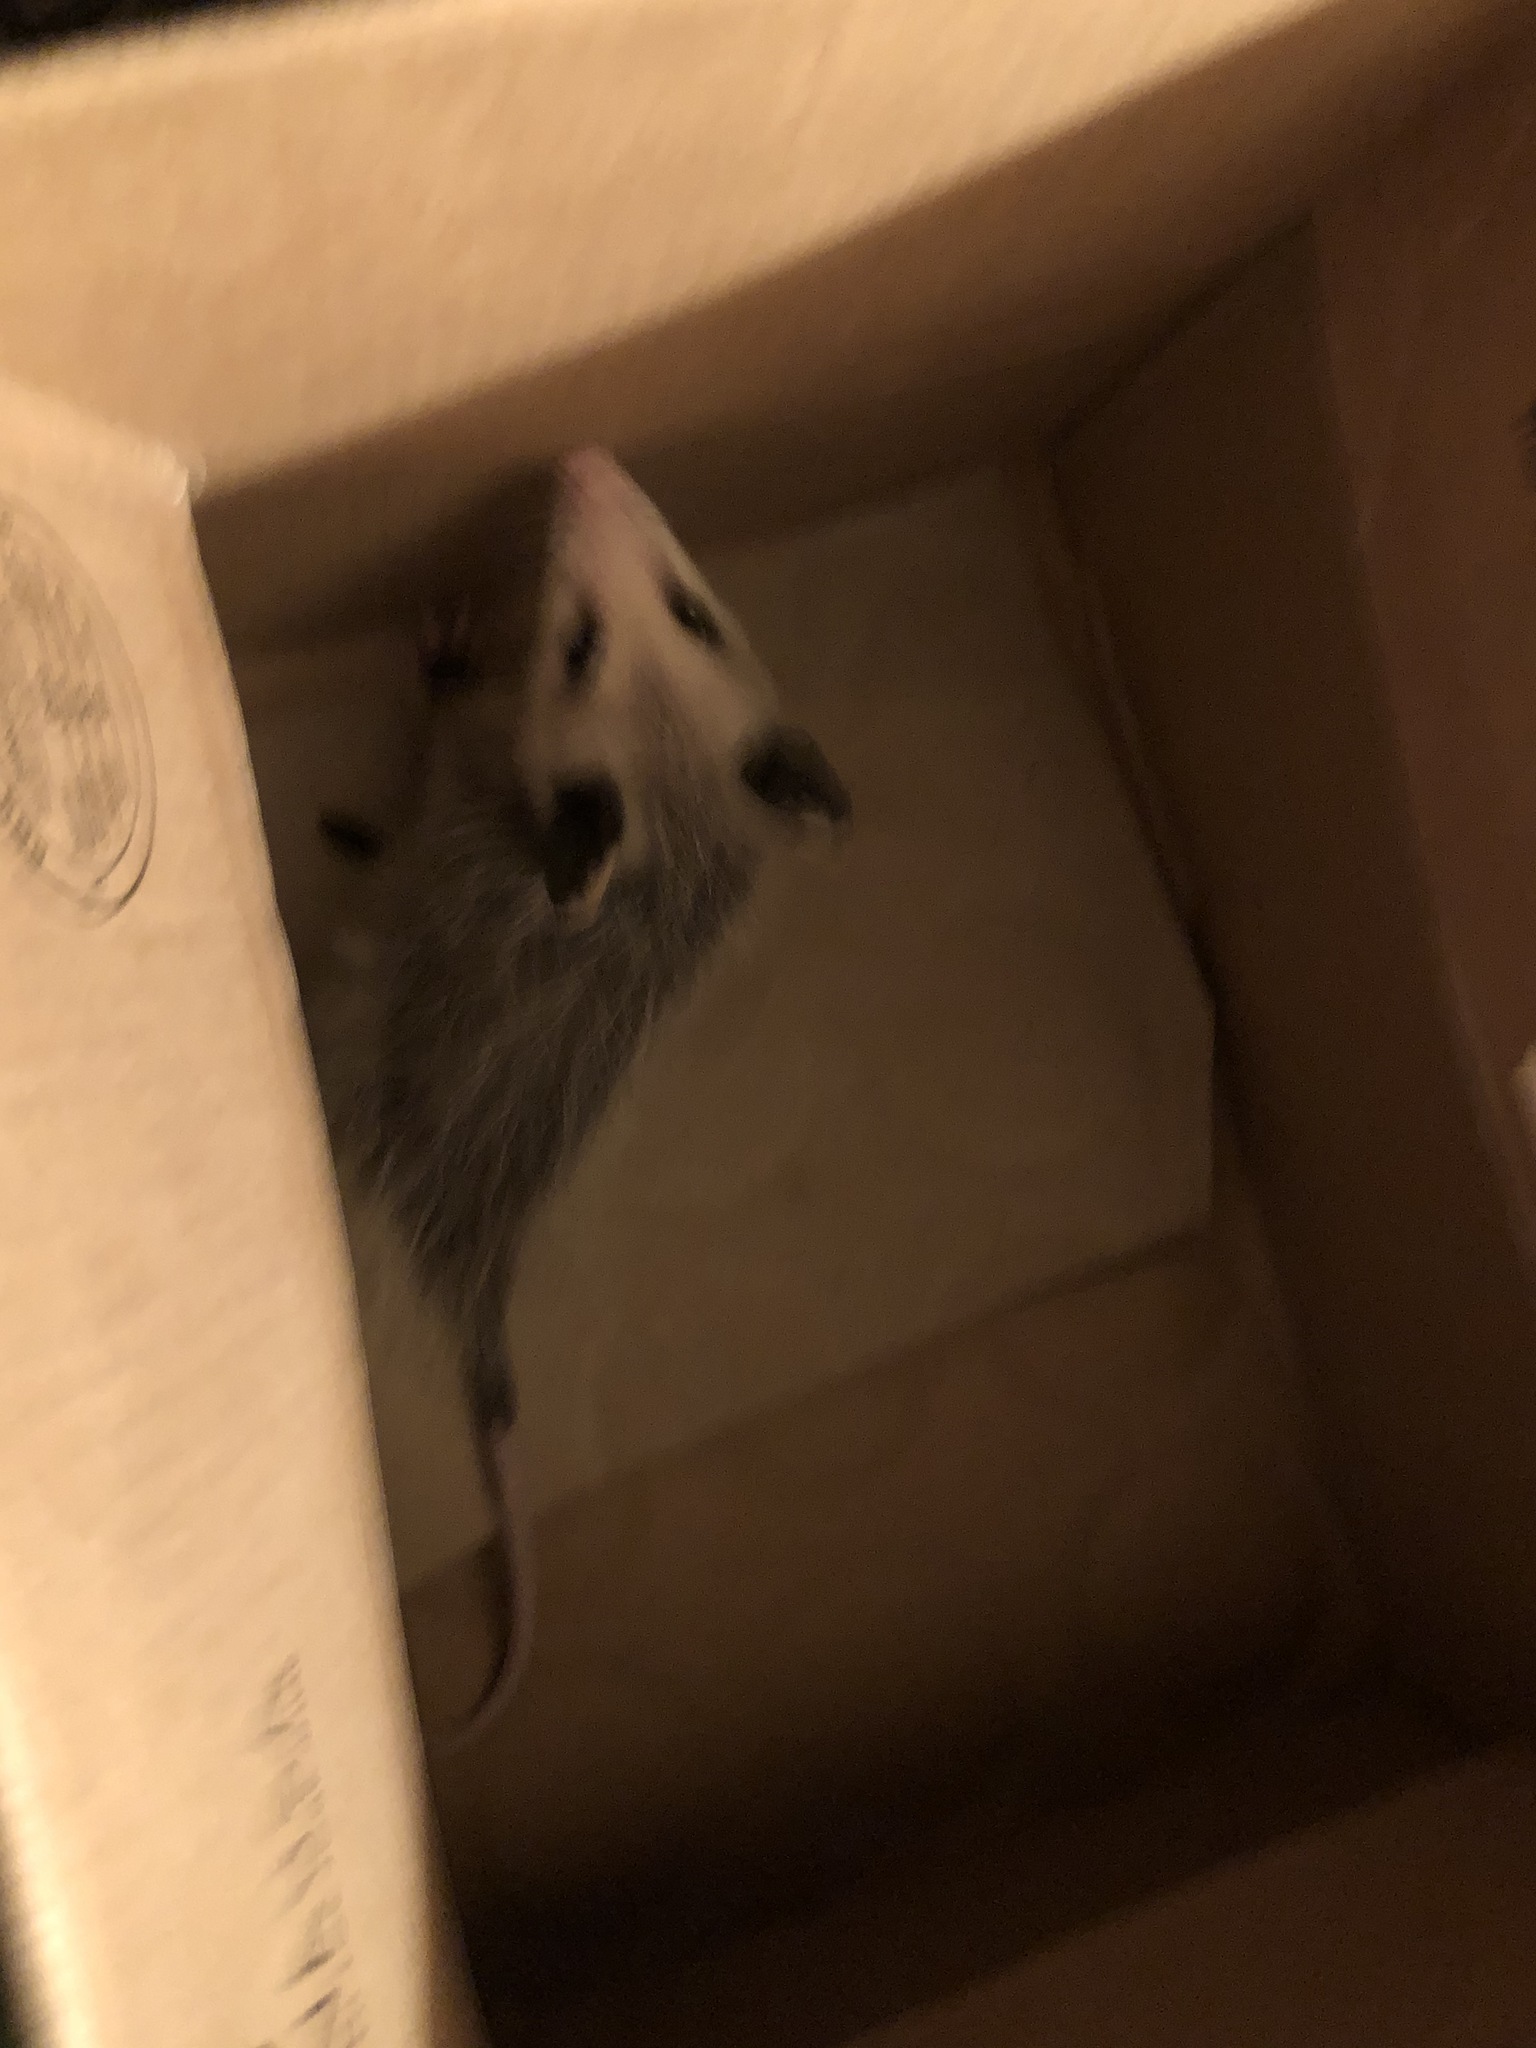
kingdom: Animalia
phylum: Chordata
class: Mammalia
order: Didelphimorphia
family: Didelphidae
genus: Didelphis
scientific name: Didelphis virginiana
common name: Virginia opossum
